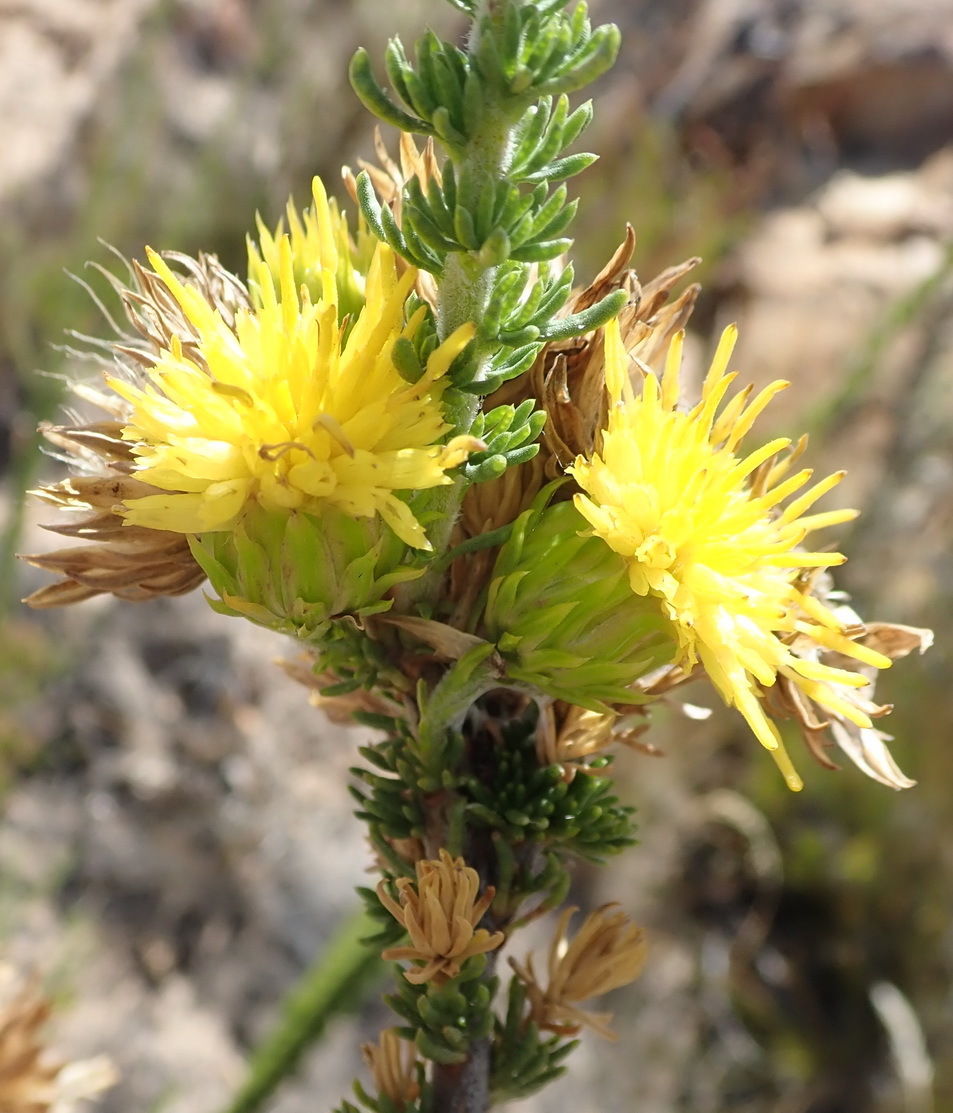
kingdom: Plantae
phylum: Tracheophyta
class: Magnoliopsida
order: Asterales
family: Asteraceae
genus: Pteronia
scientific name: Pteronia camphorata
